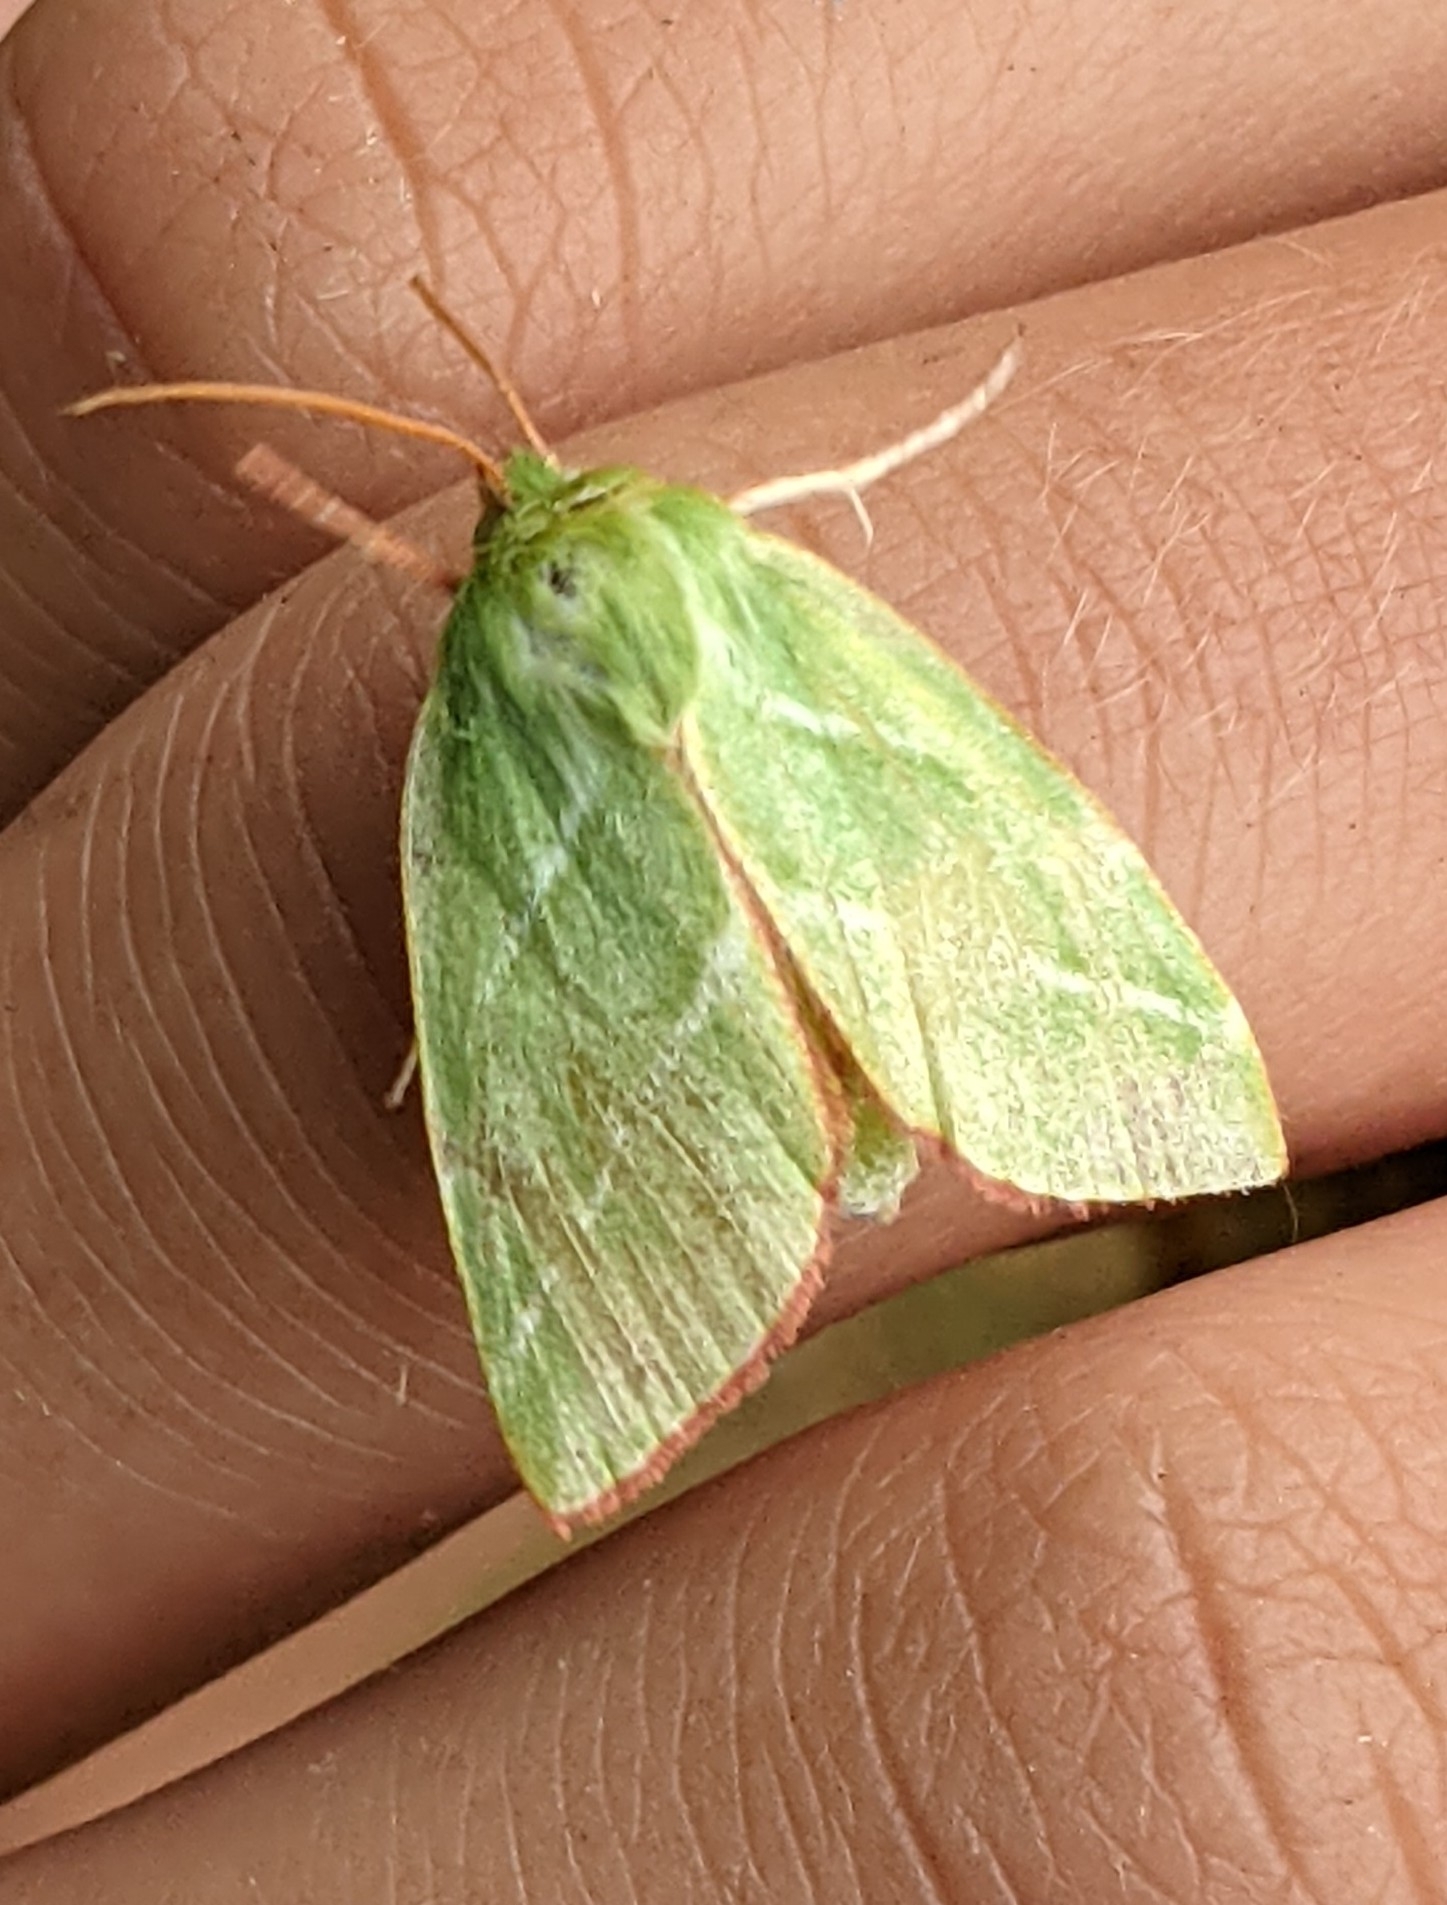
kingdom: Animalia
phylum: Arthropoda
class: Insecta
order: Lepidoptera
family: Nolidae
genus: Pseudoips
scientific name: Pseudoips prasinana
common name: Green silver-lines
